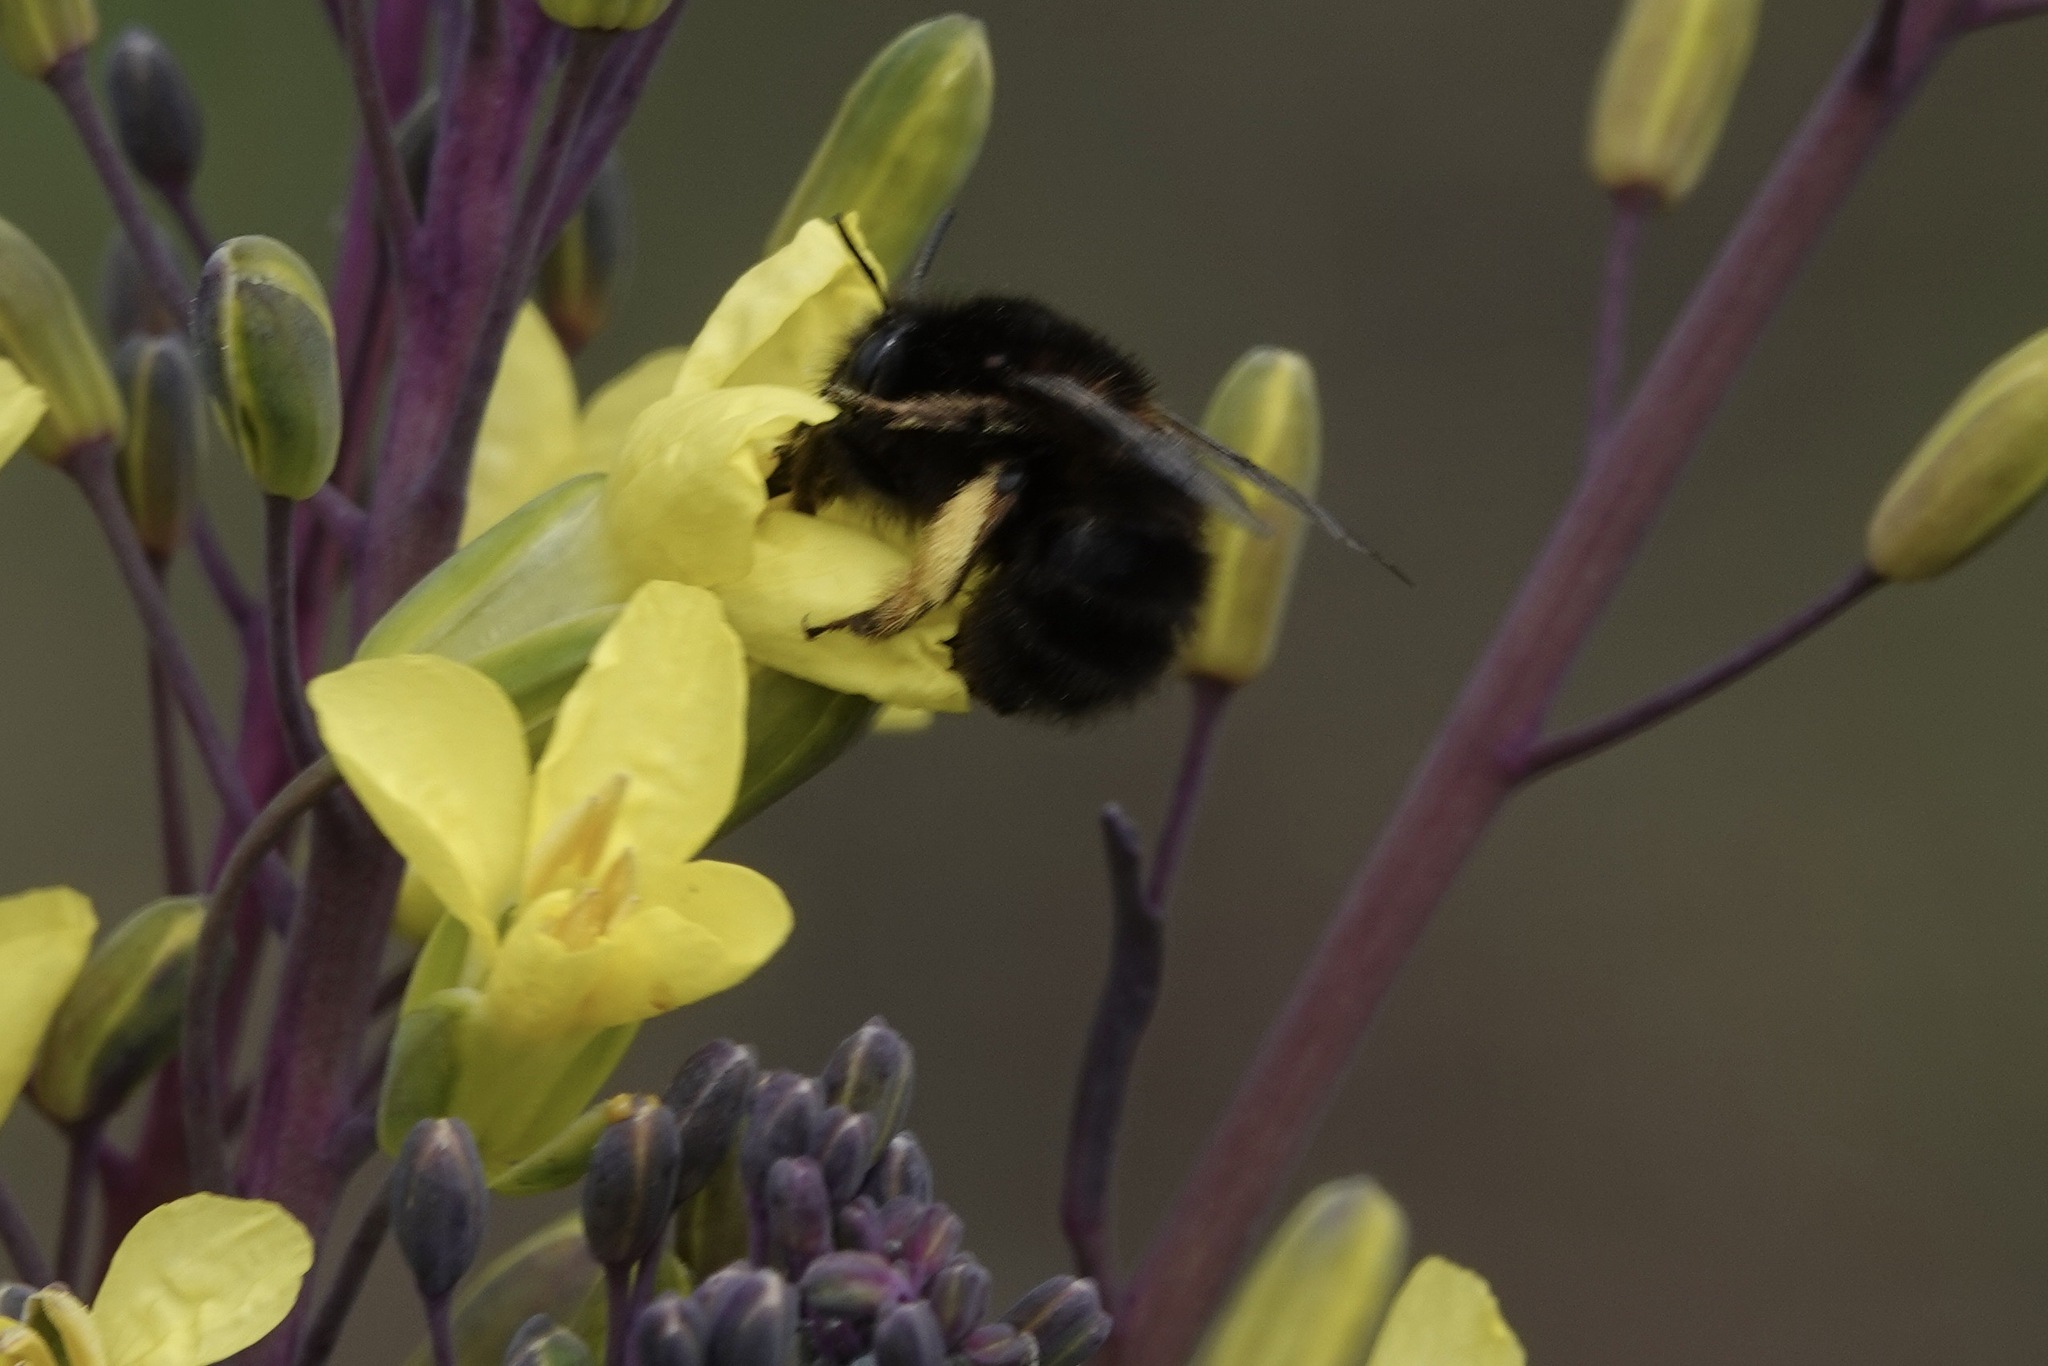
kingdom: Animalia
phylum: Arthropoda
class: Insecta
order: Hymenoptera
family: Apidae
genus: Anthophora
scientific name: Anthophora plumipes
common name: Hairy-footed flower bee
